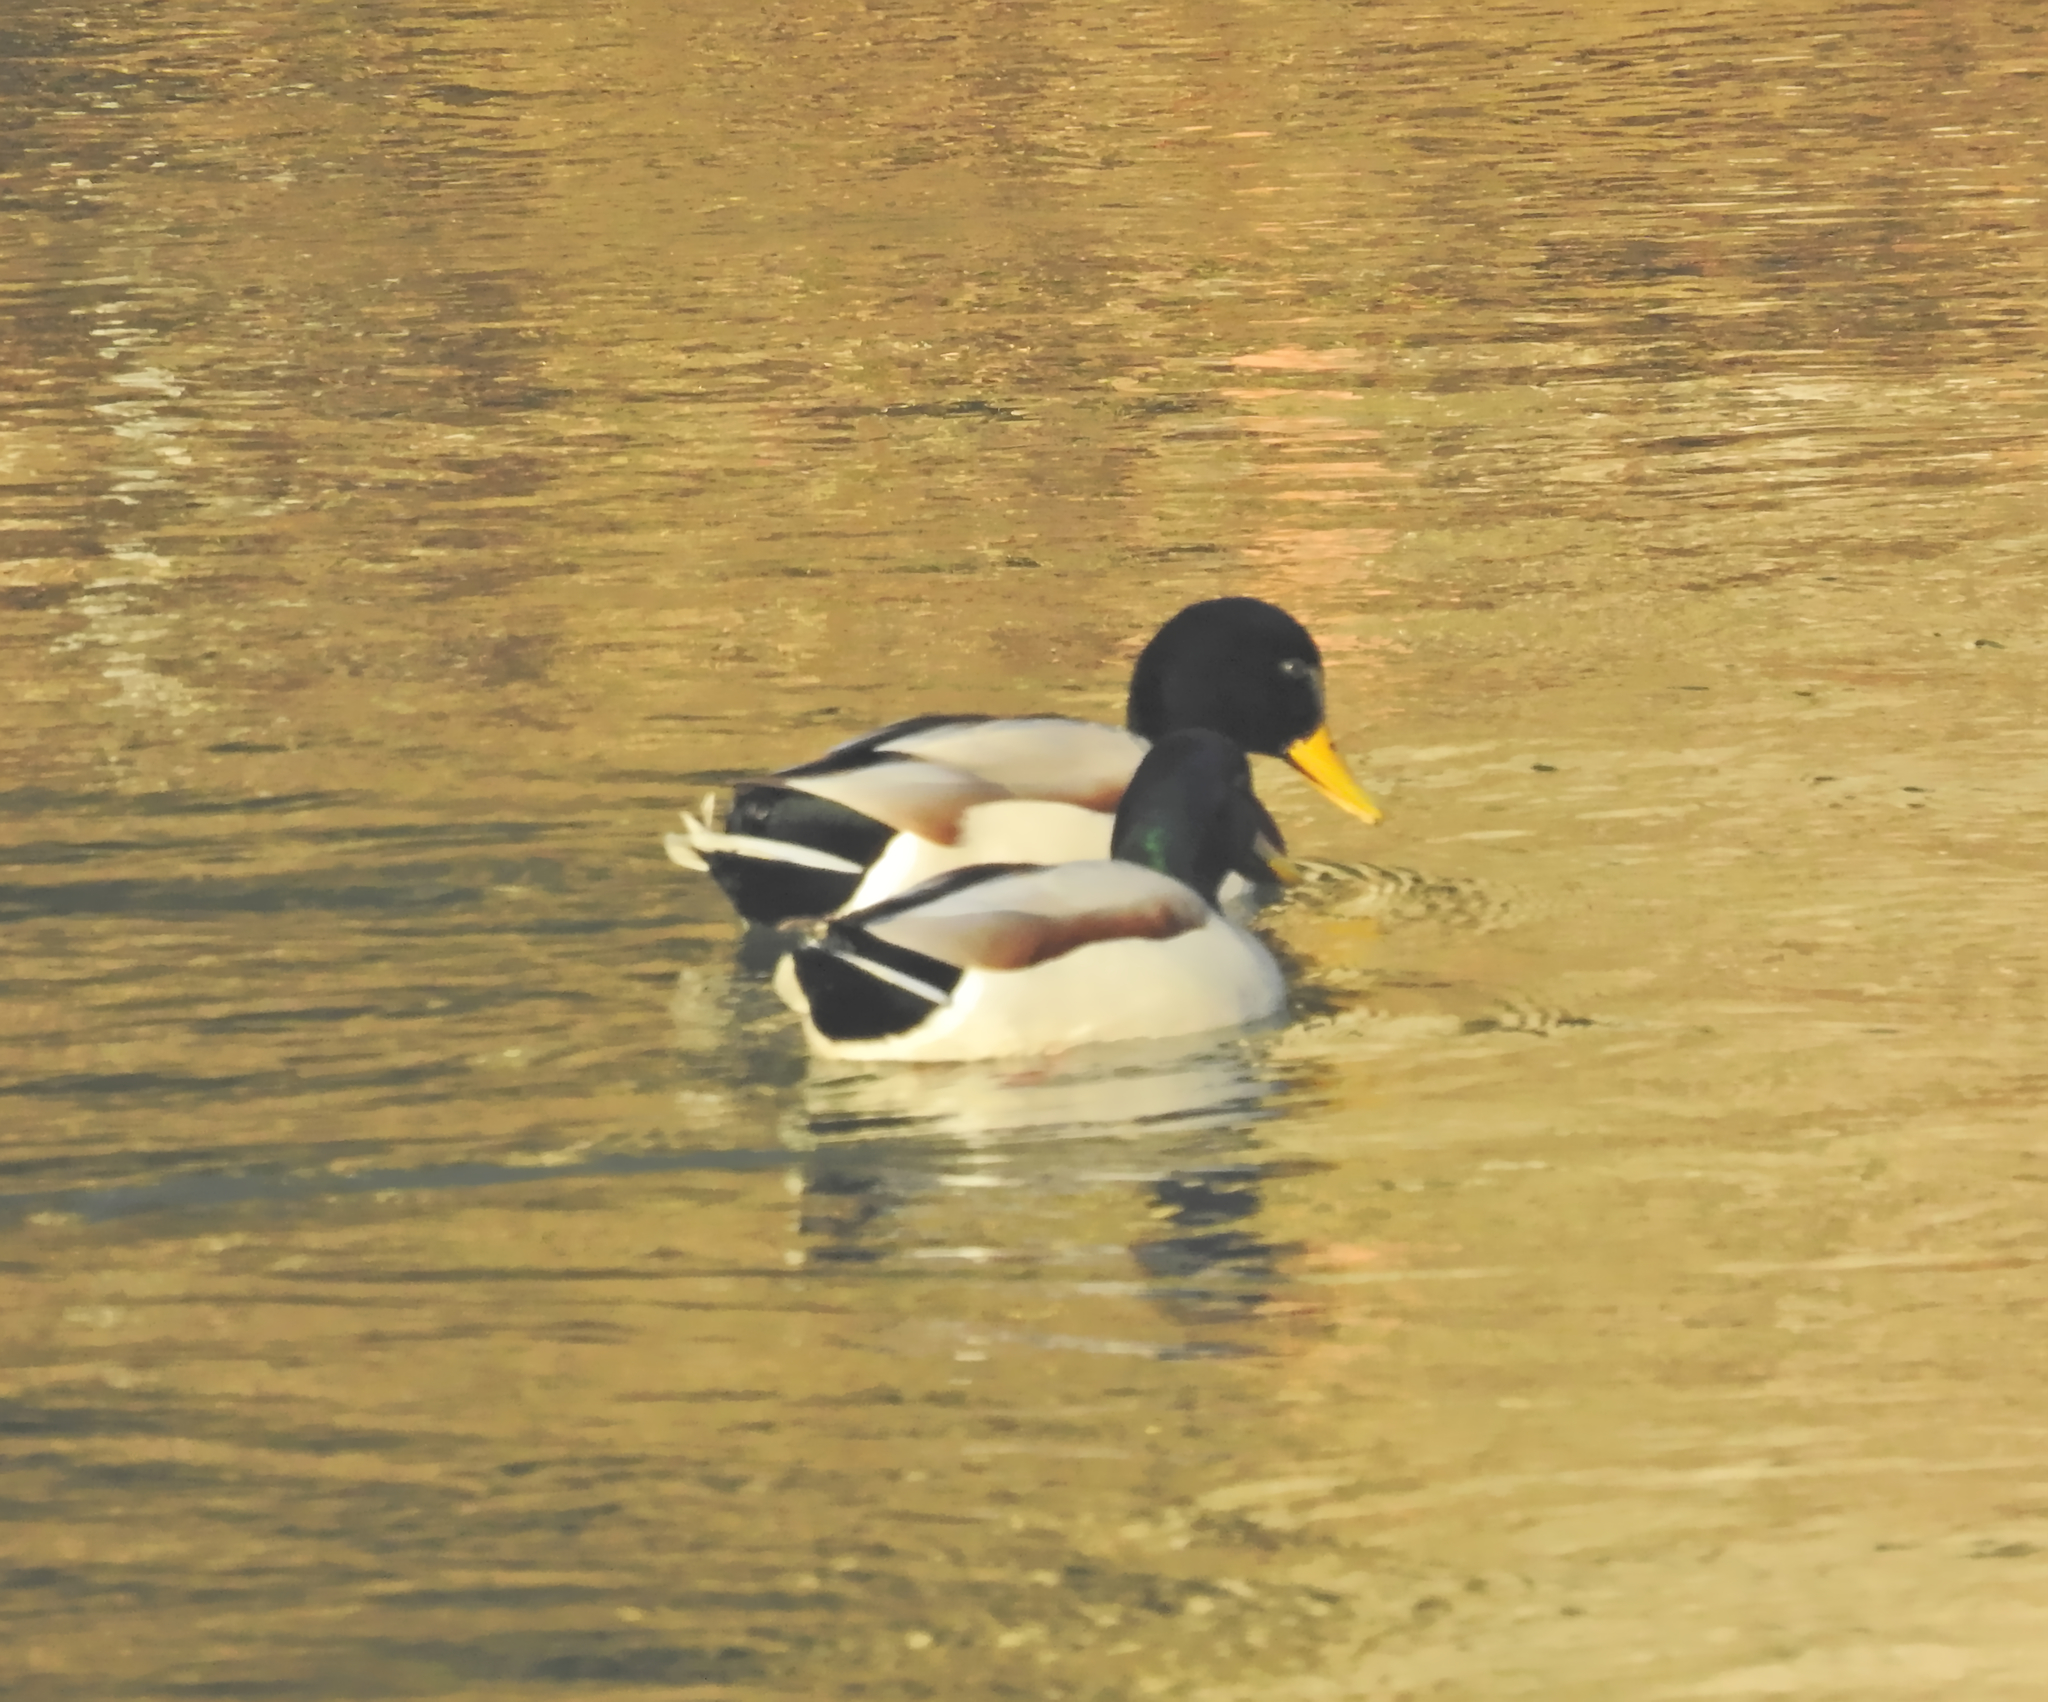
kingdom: Animalia
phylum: Chordata
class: Aves
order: Anseriformes
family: Anatidae
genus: Anas
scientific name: Anas platyrhynchos
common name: Mallard
